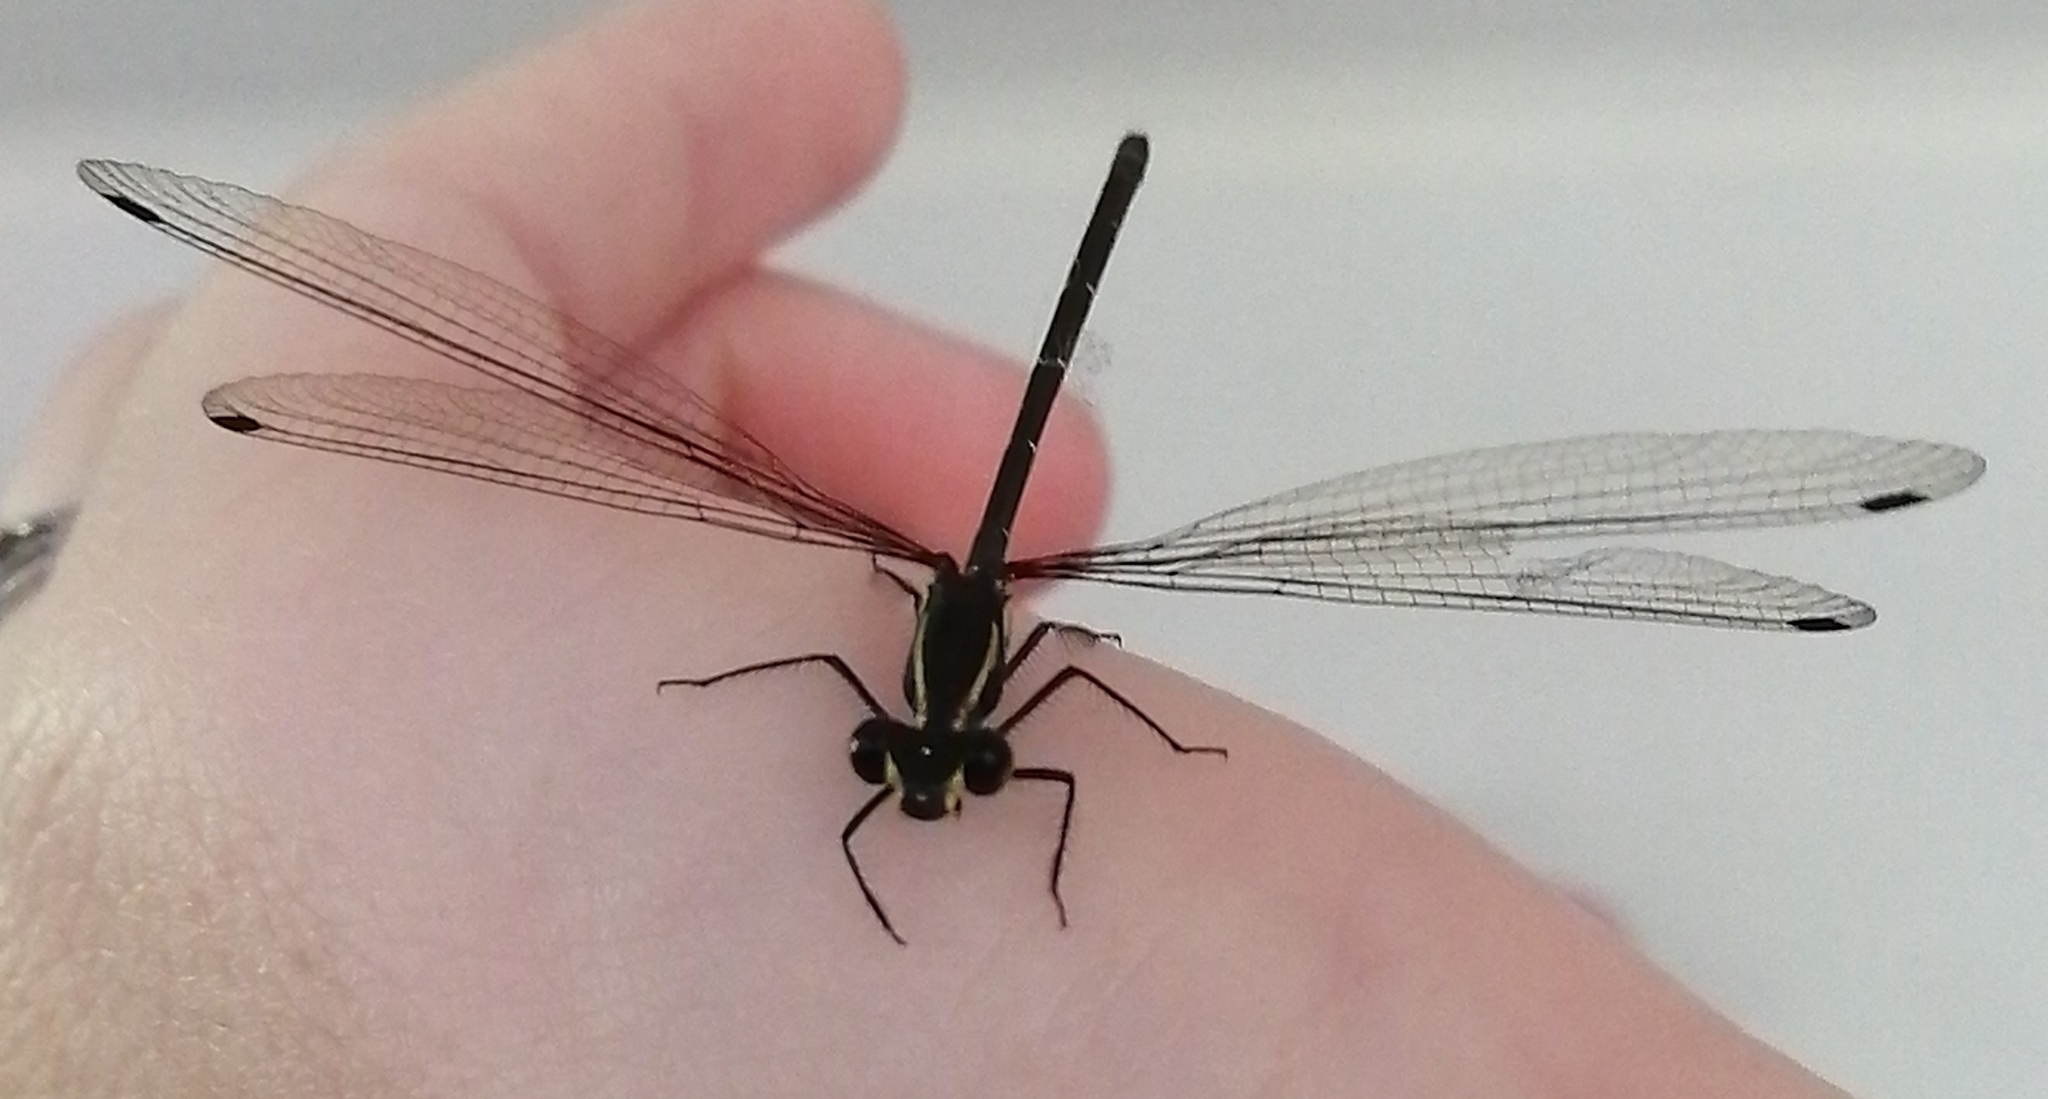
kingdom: Animalia
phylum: Arthropoda
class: Insecta
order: Odonata
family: Argiolestidae
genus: Austroargiolestes
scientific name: Austroargiolestes icteromelas
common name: Common flatwing
